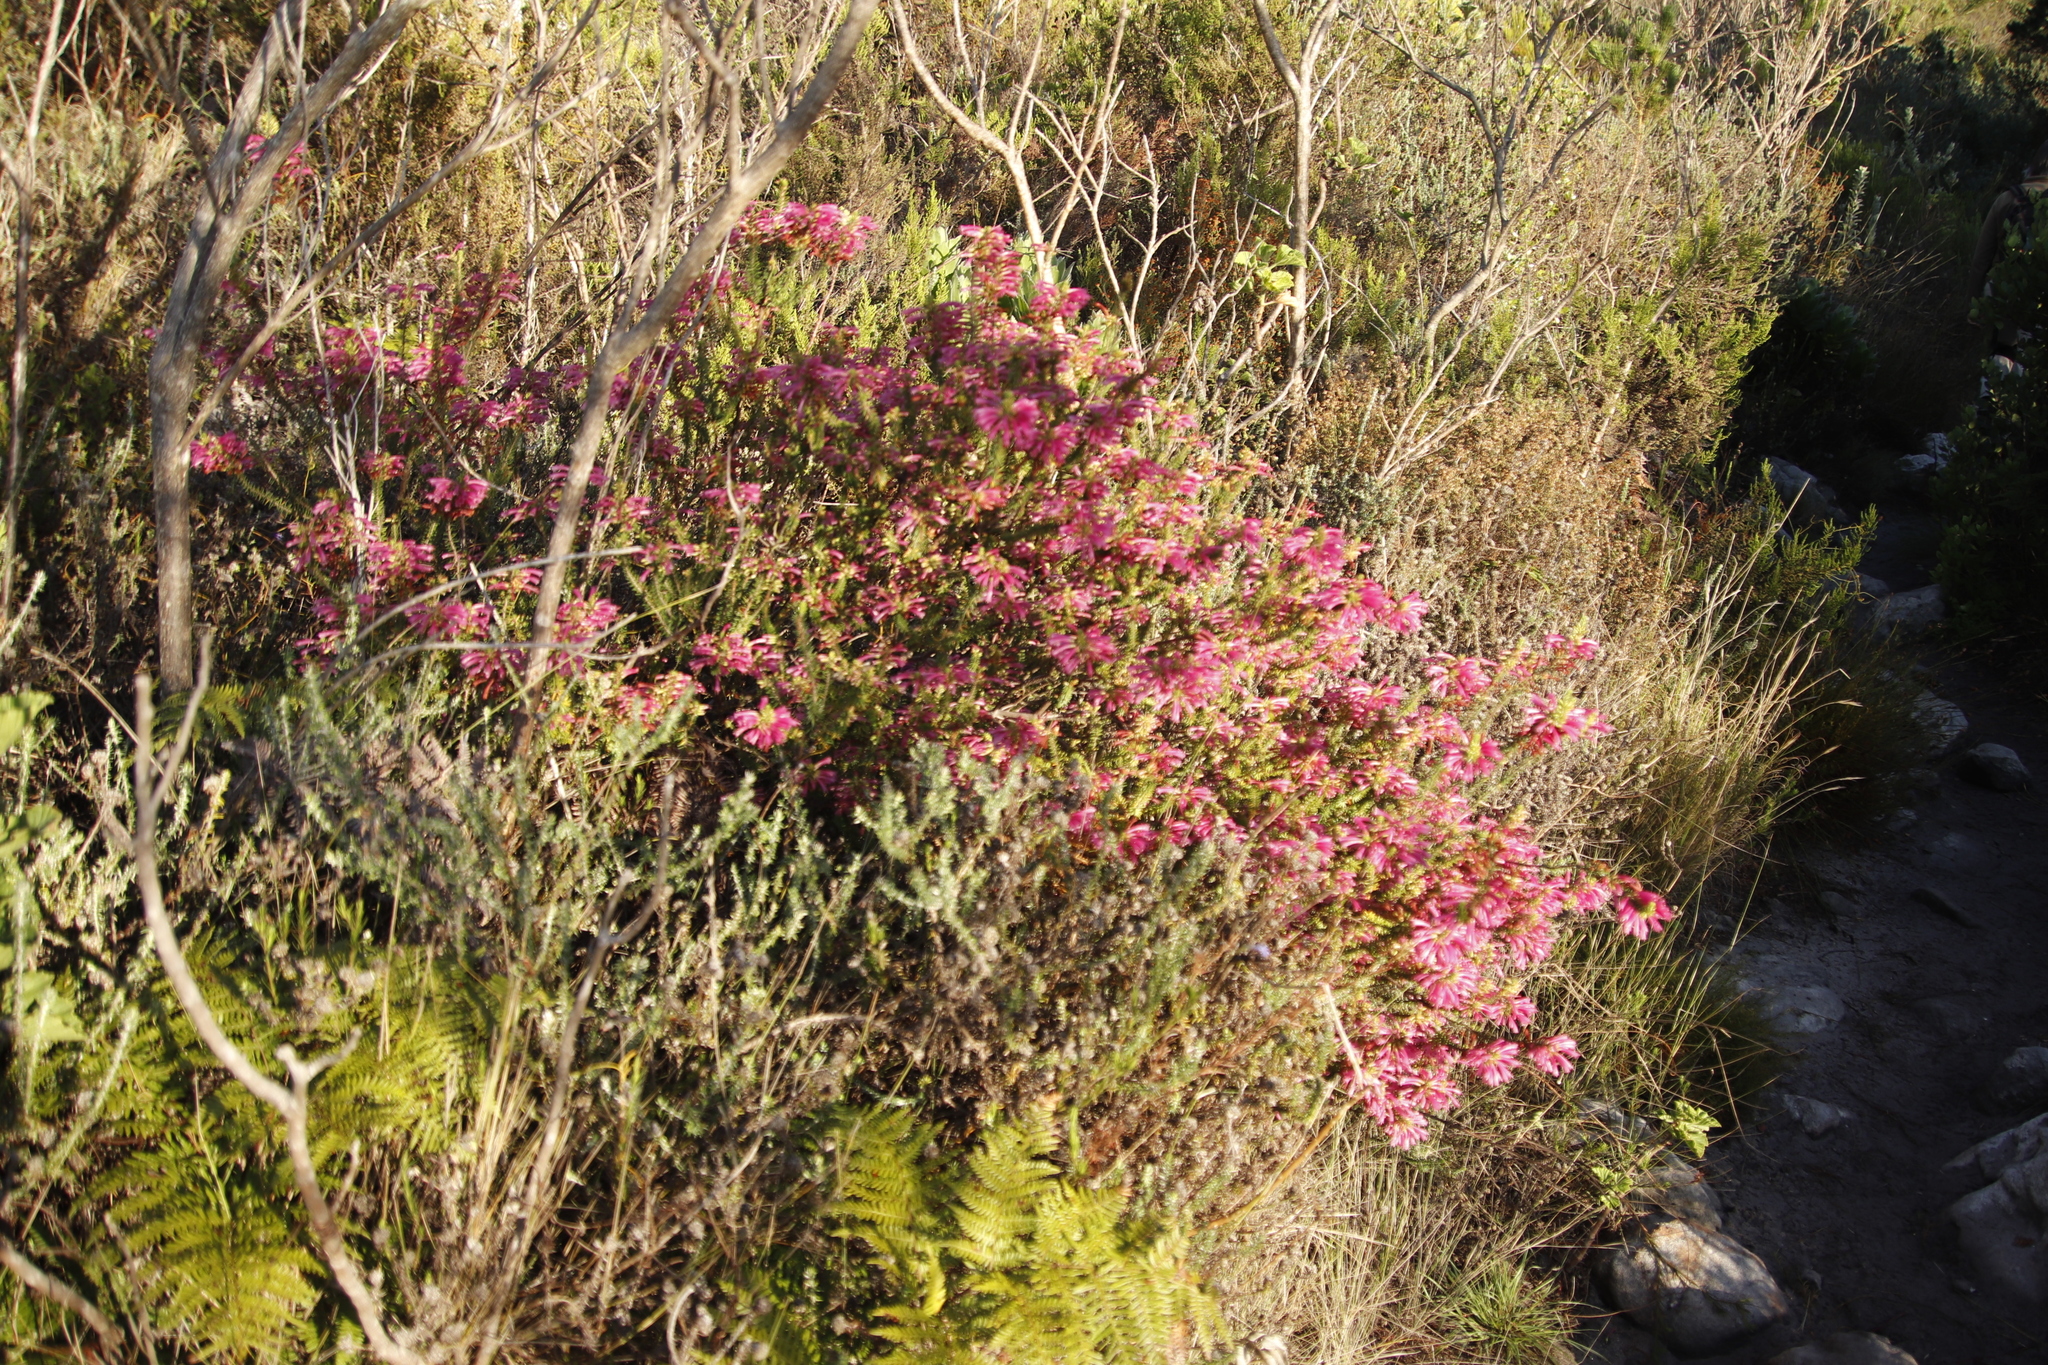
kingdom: Plantae
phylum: Tracheophyta
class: Magnoliopsida
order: Ericales
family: Ericaceae
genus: Erica
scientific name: Erica abietina
